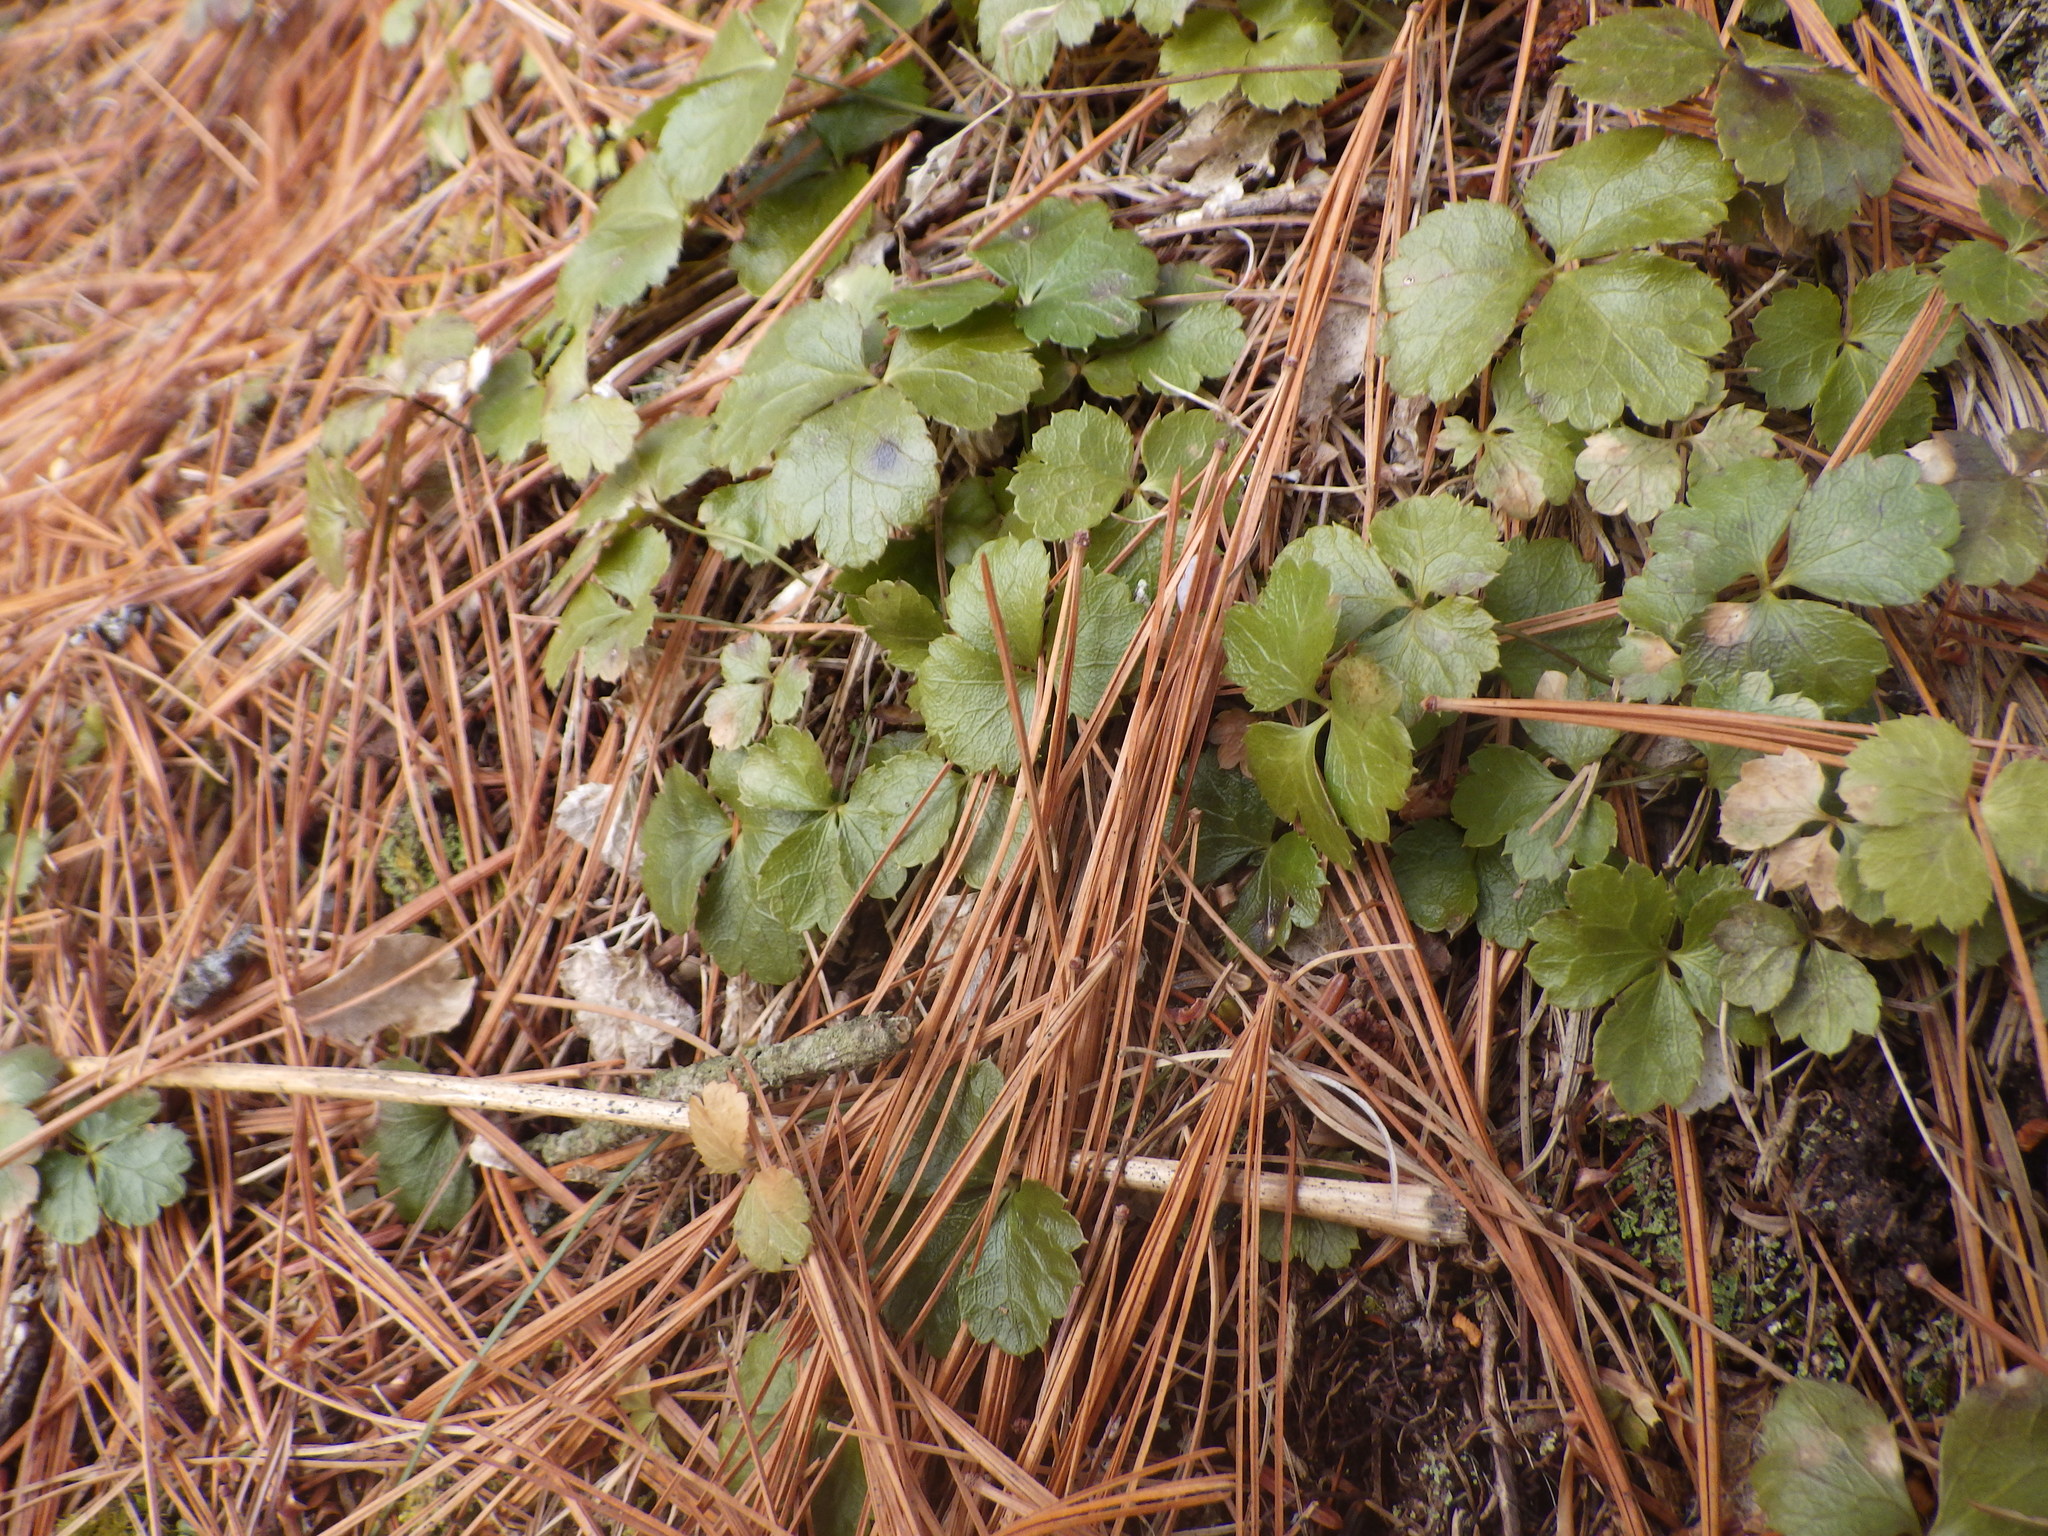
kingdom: Plantae
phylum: Tracheophyta
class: Magnoliopsida
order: Ranunculales
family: Ranunculaceae
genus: Coptis
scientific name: Coptis trifolia
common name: Canker-root
